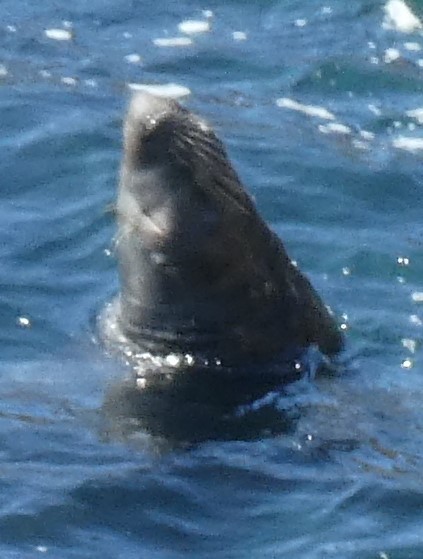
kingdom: Animalia
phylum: Chordata
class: Mammalia
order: Carnivora
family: Phocidae
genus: Halichoerus
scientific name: Halichoerus grypus
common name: Grey seal
